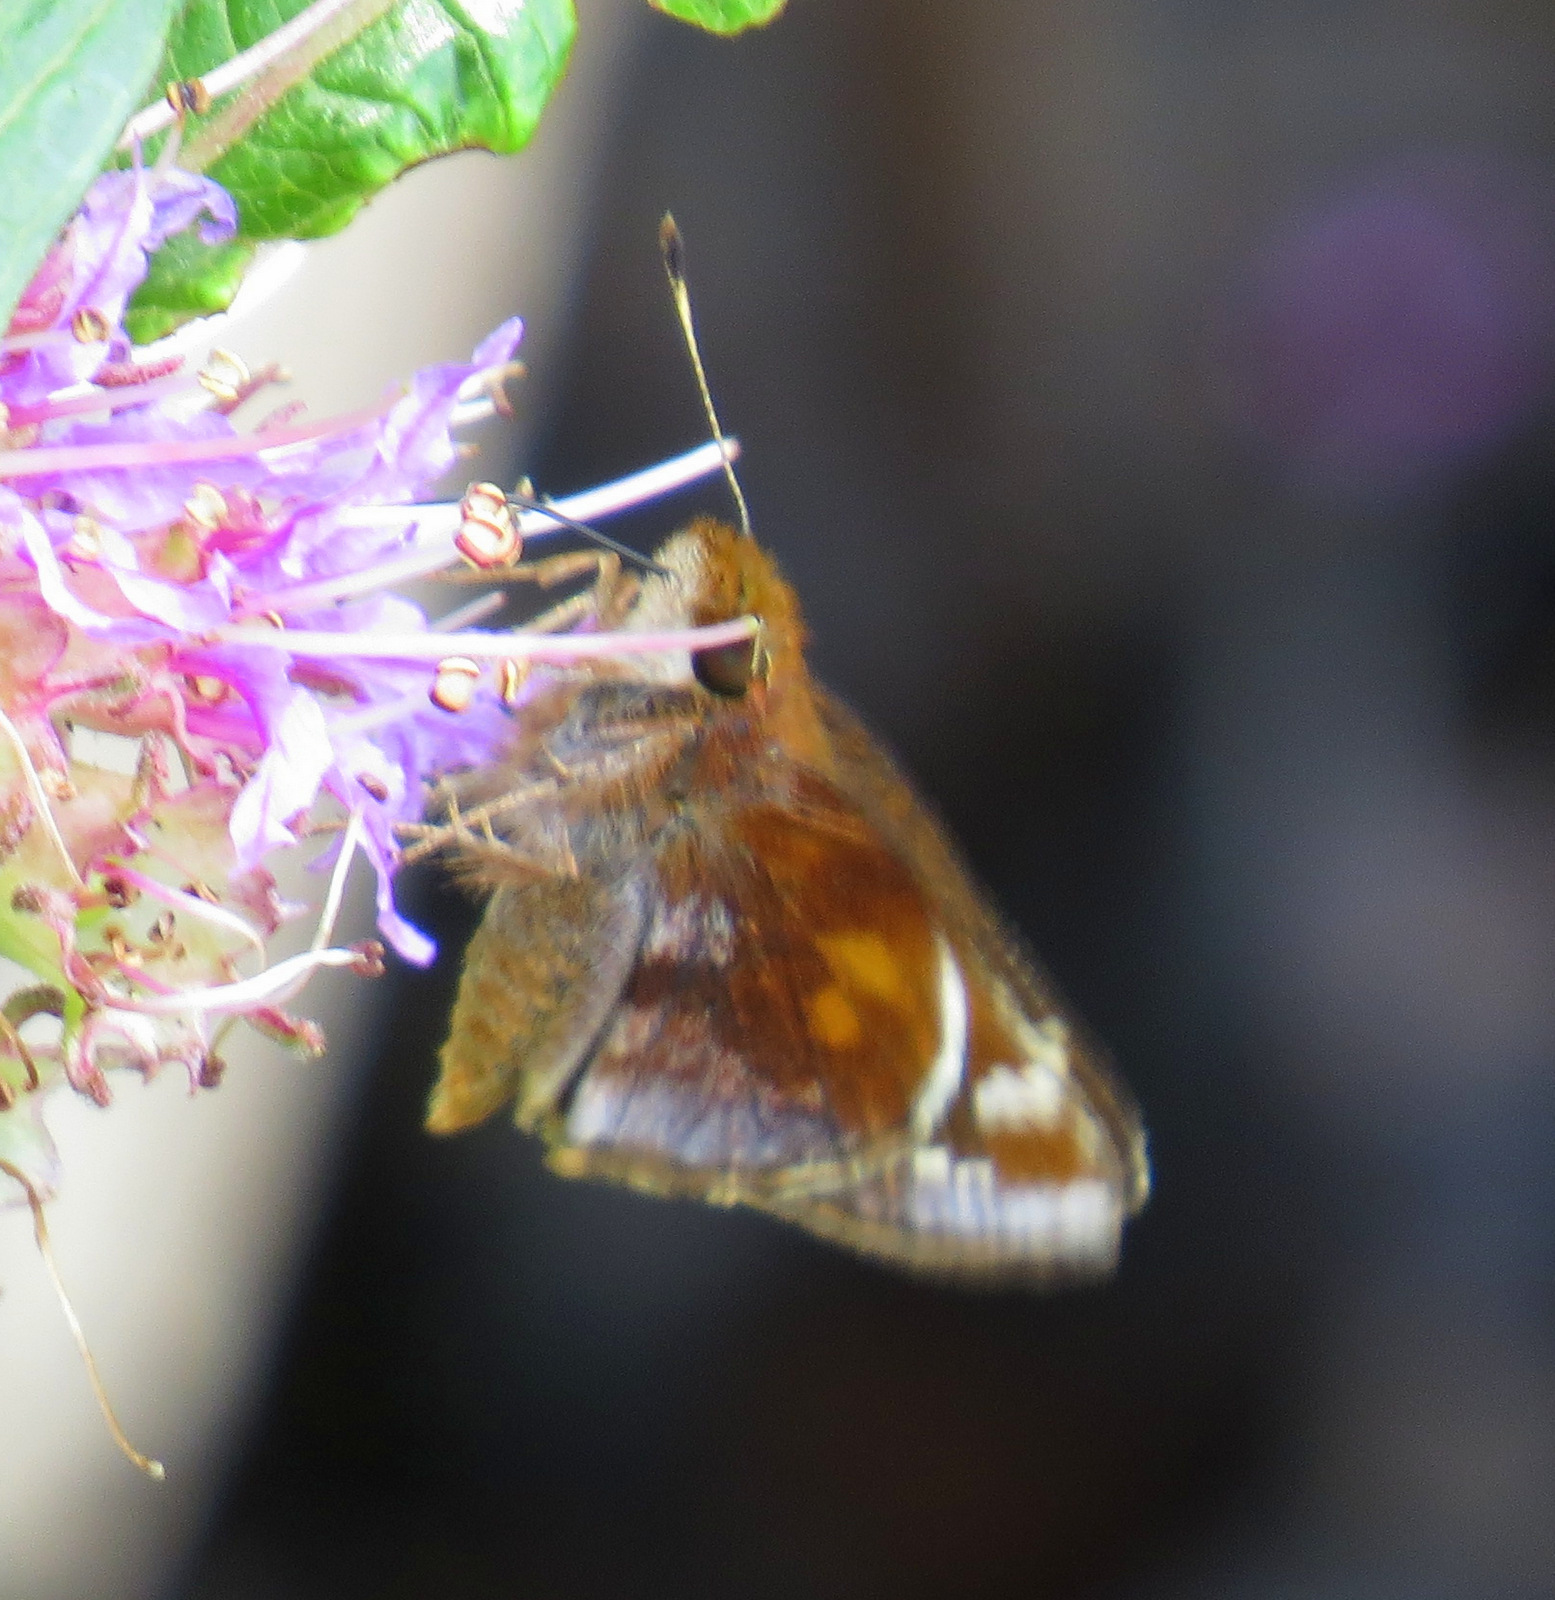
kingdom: Animalia
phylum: Arthropoda
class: Insecta
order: Lepidoptera
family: Hesperiidae
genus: Lon
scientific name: Lon zabulon
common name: Zabulon skipper
